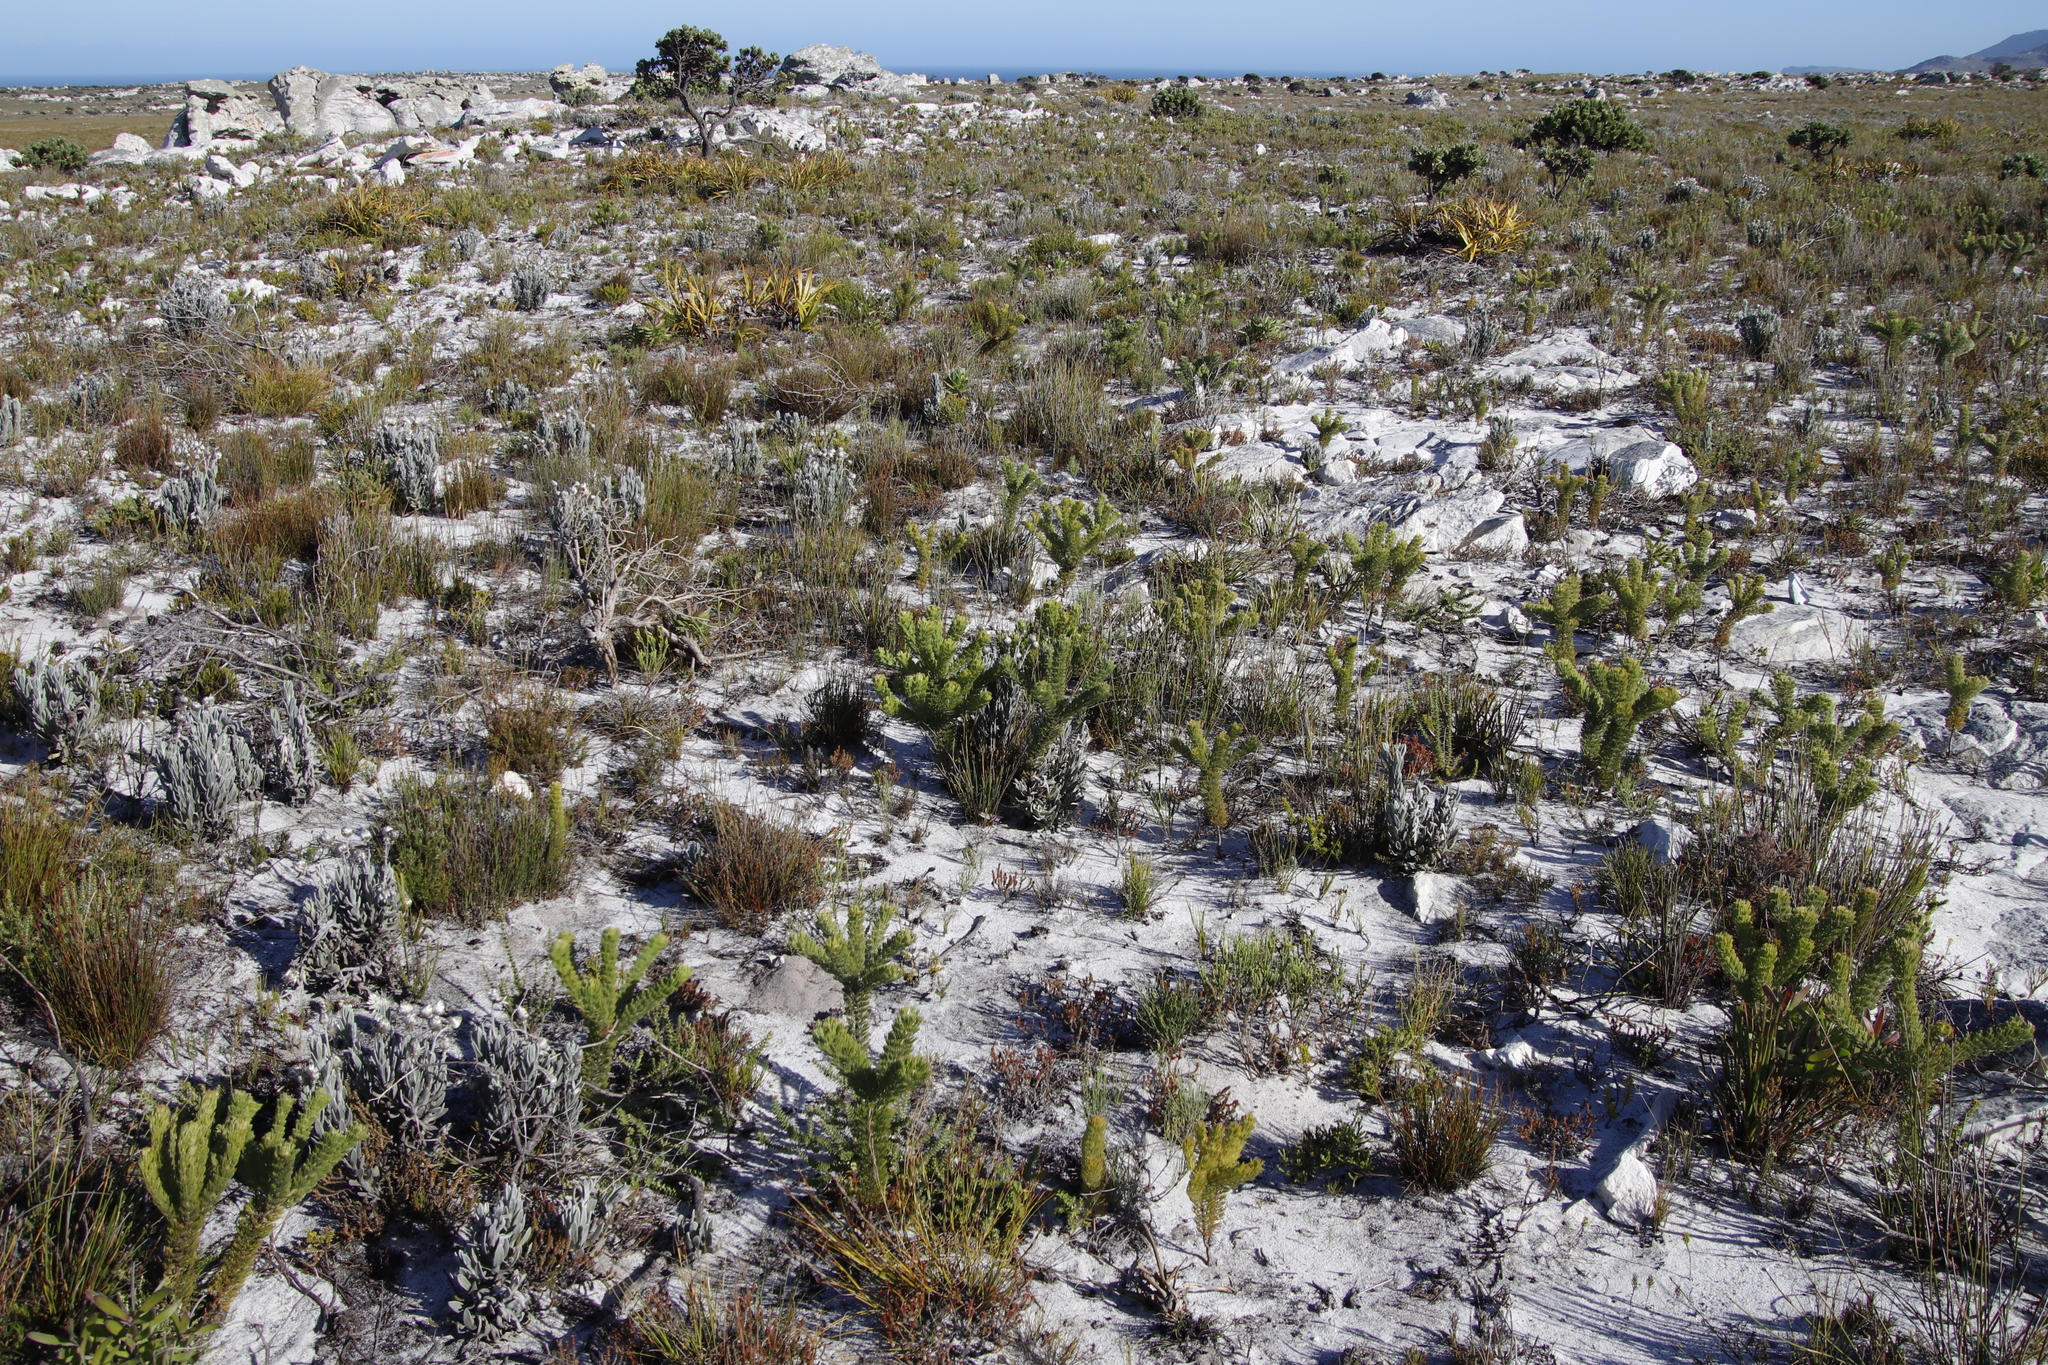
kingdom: Plantae
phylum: Tracheophyta
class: Magnoliopsida
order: Proteales
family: Proteaceae
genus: Serruria
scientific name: Serruria villosa
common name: Golden spiderhead
